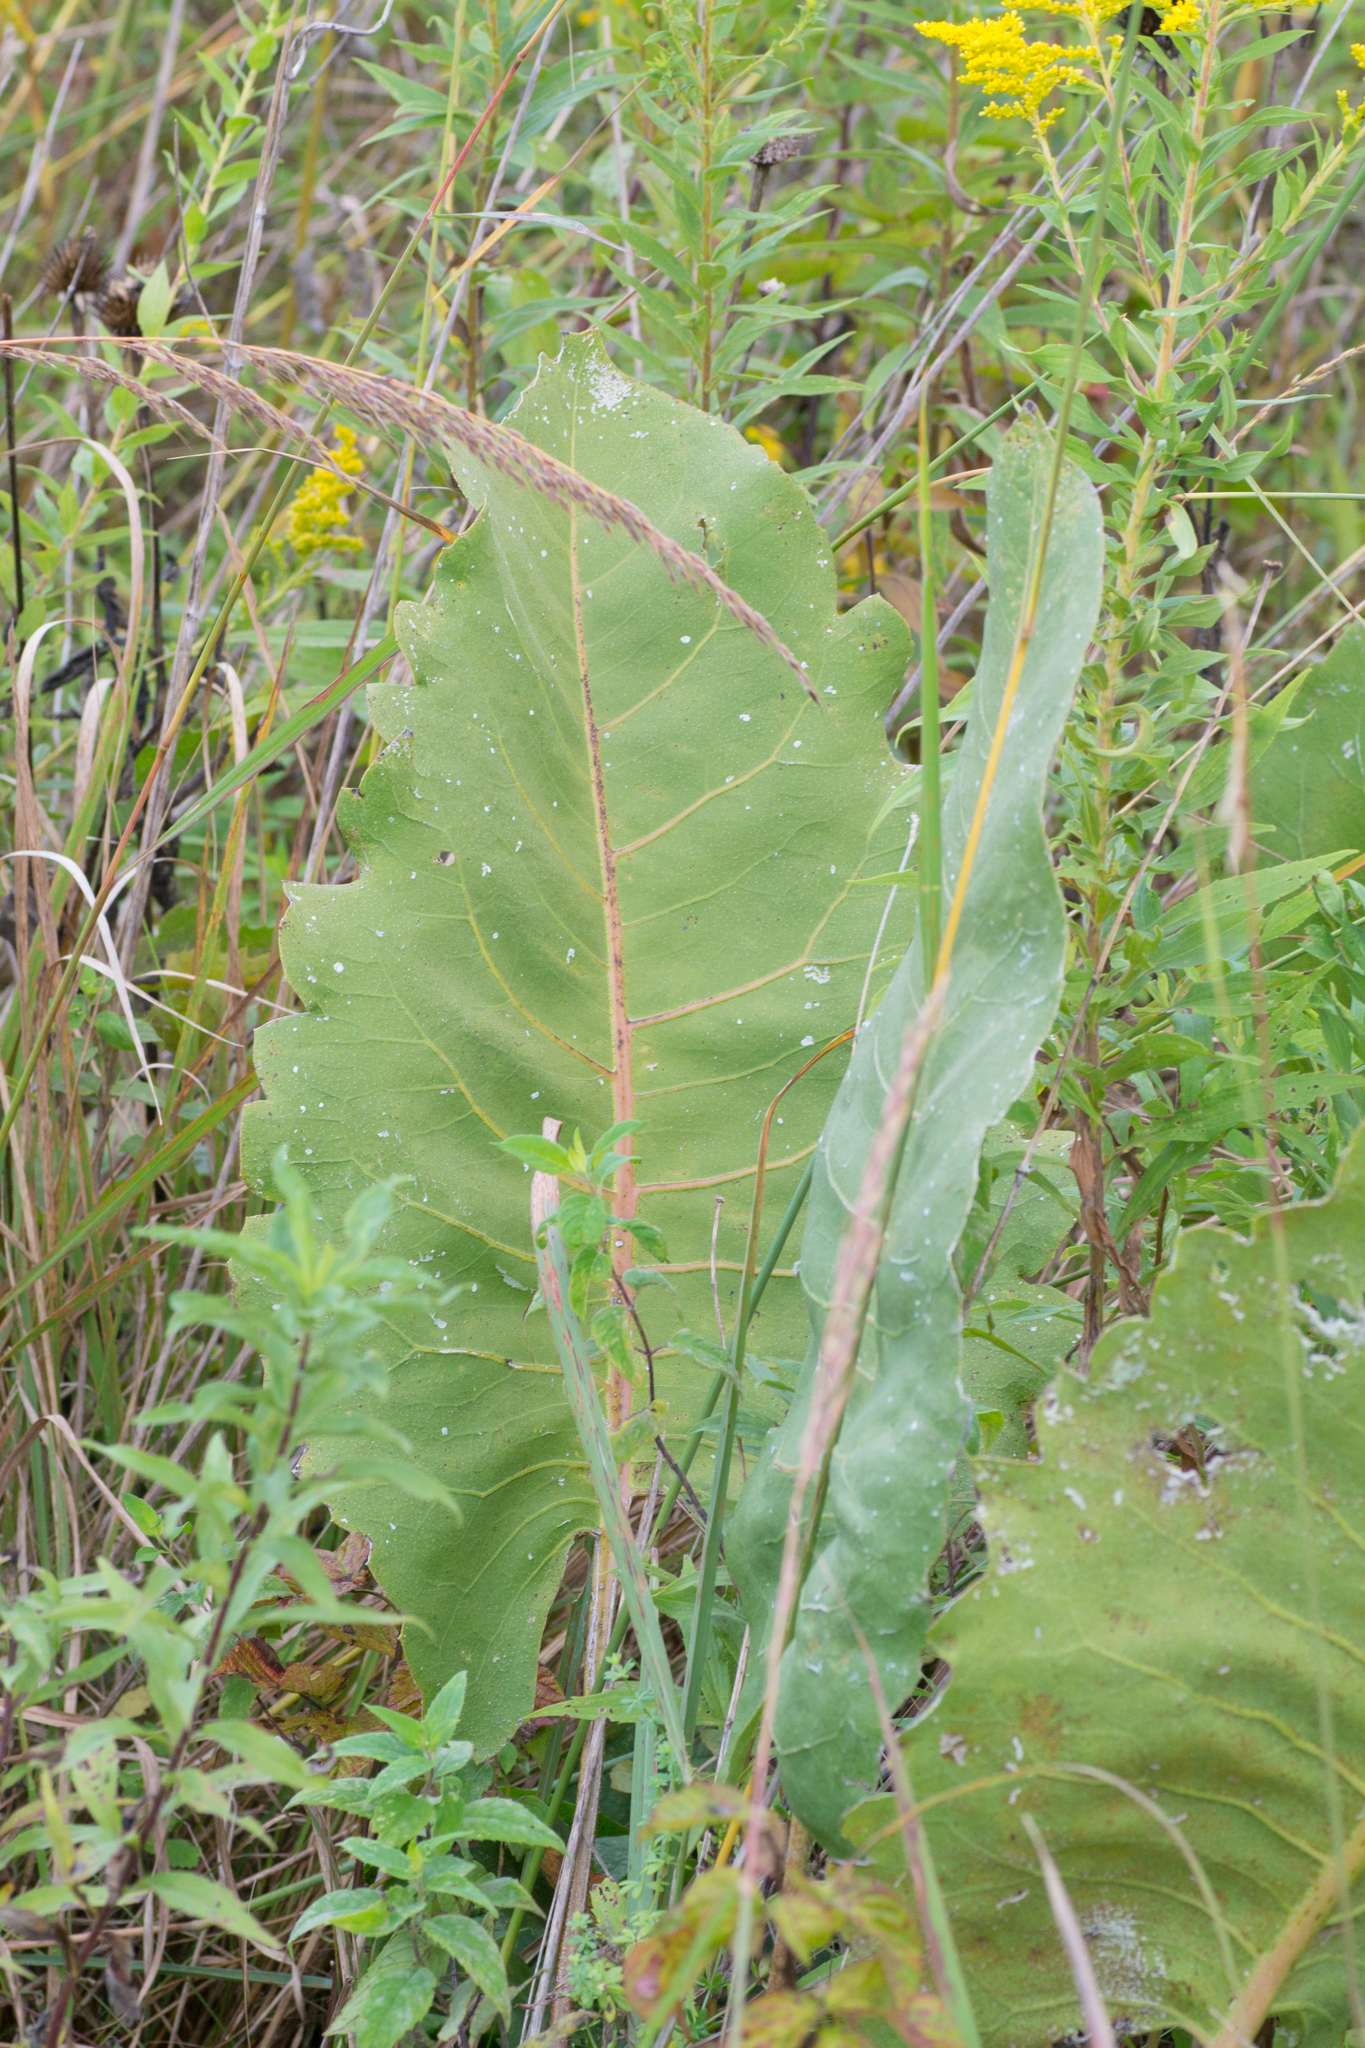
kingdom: Plantae
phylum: Tracheophyta
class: Magnoliopsida
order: Asterales
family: Asteraceae
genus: Silphium
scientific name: Silphium terebinthinaceum
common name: Basal-leaf rosinweed
